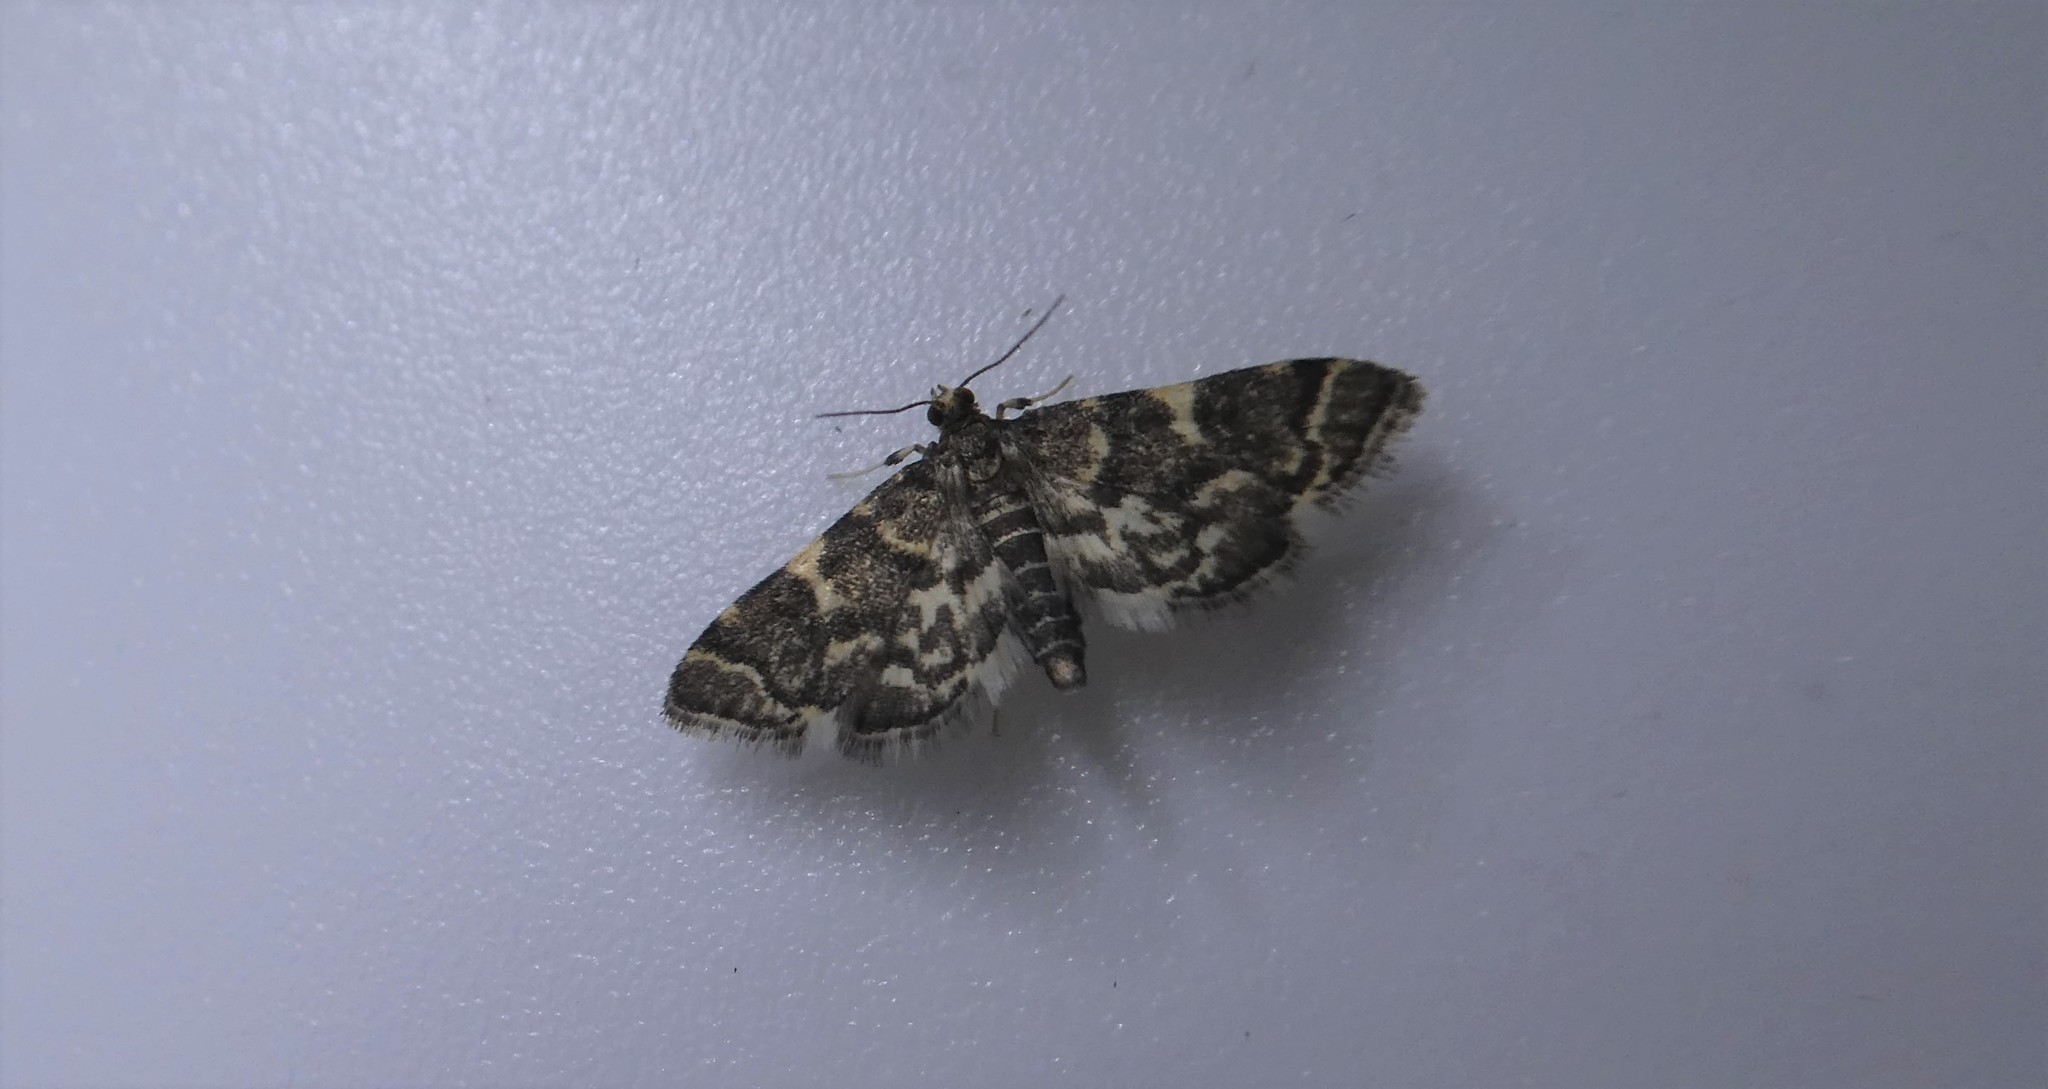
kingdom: Animalia
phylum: Arthropoda
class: Insecta
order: Lepidoptera
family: Crambidae
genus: Anageshna
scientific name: Anageshna primordialis
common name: Yellow-spotted webworm moth
